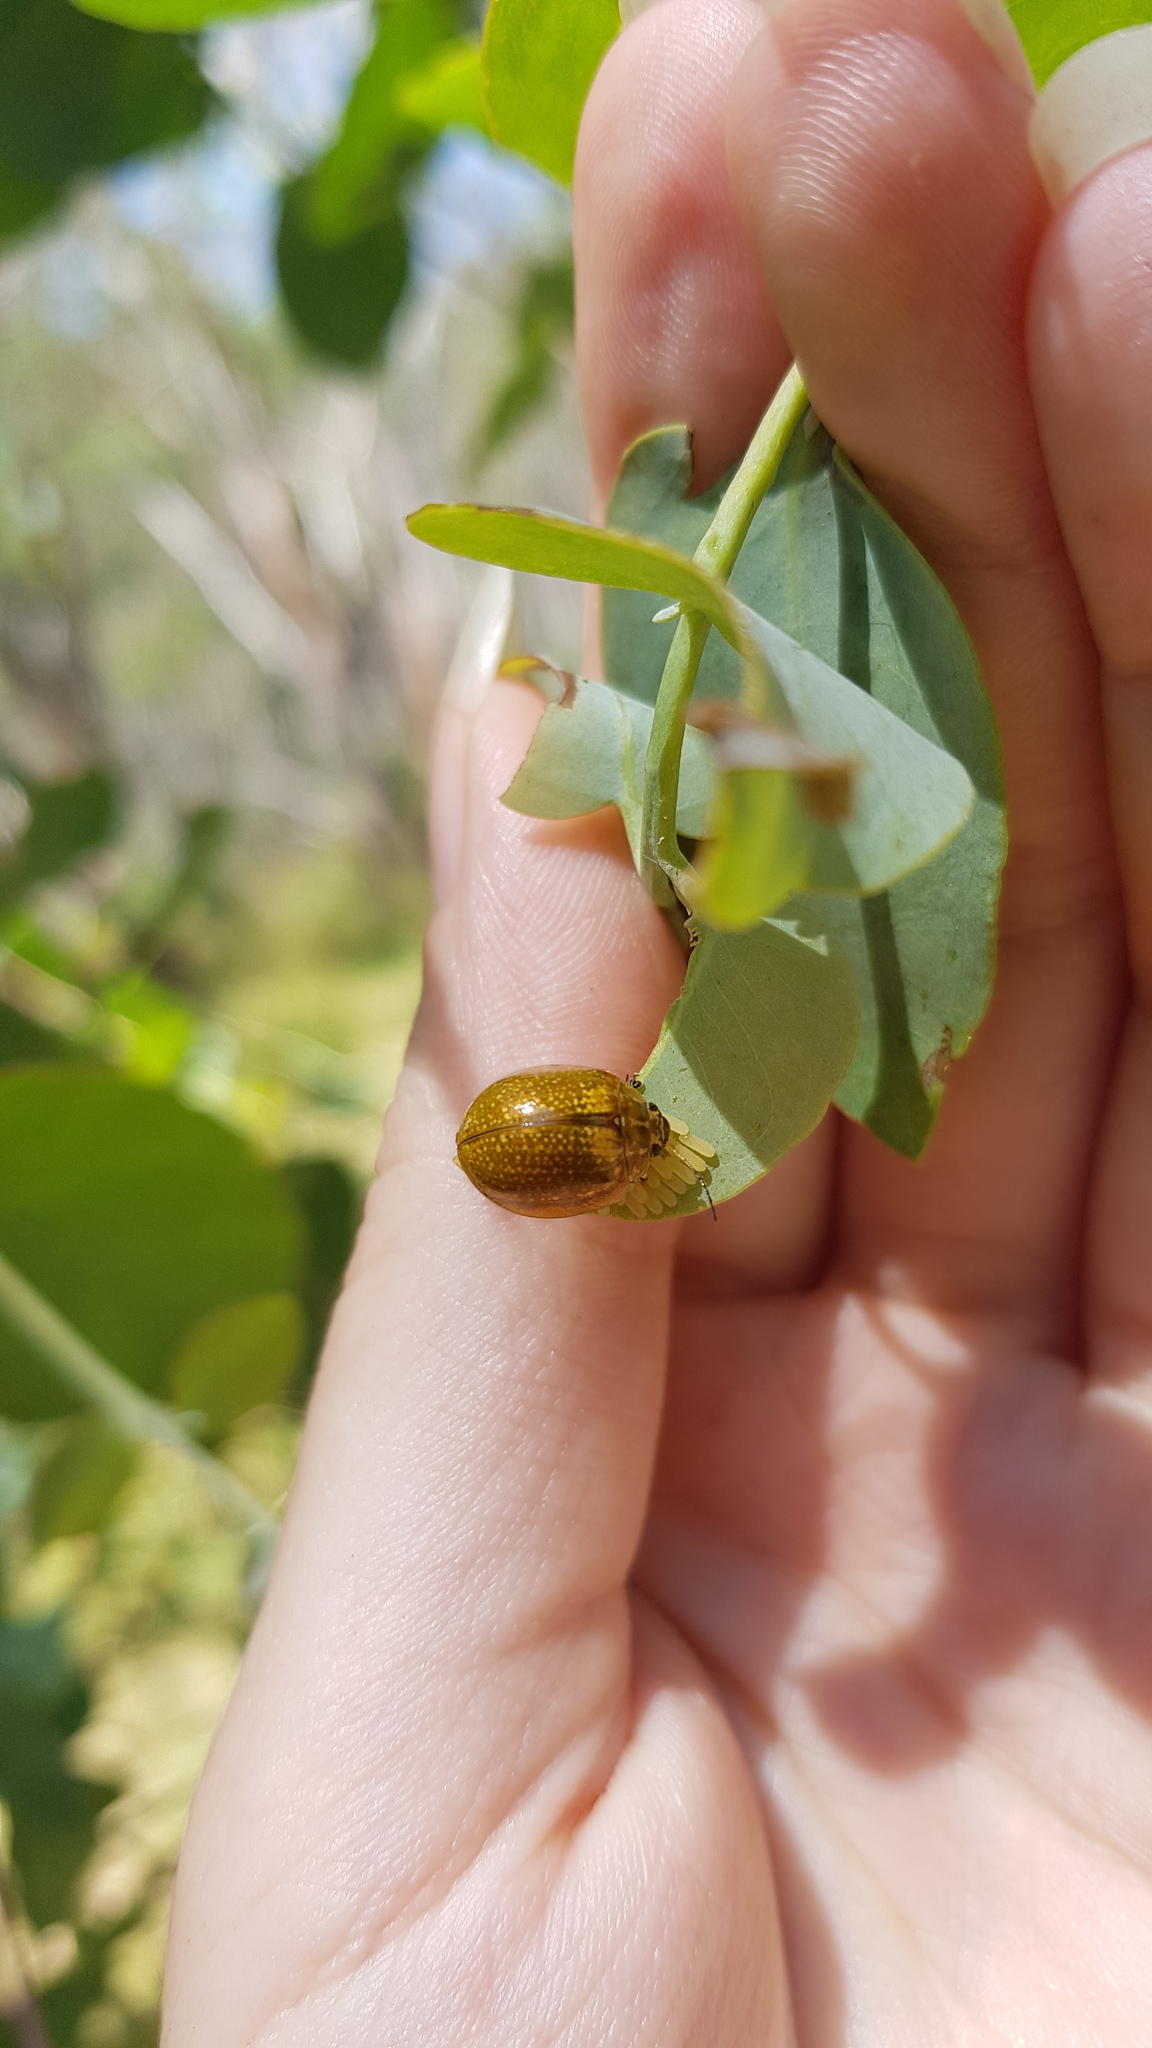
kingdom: Animalia
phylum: Arthropoda
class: Insecta
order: Coleoptera
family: Chrysomelidae
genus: Paropsisterna
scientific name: Paropsisterna cloelia
